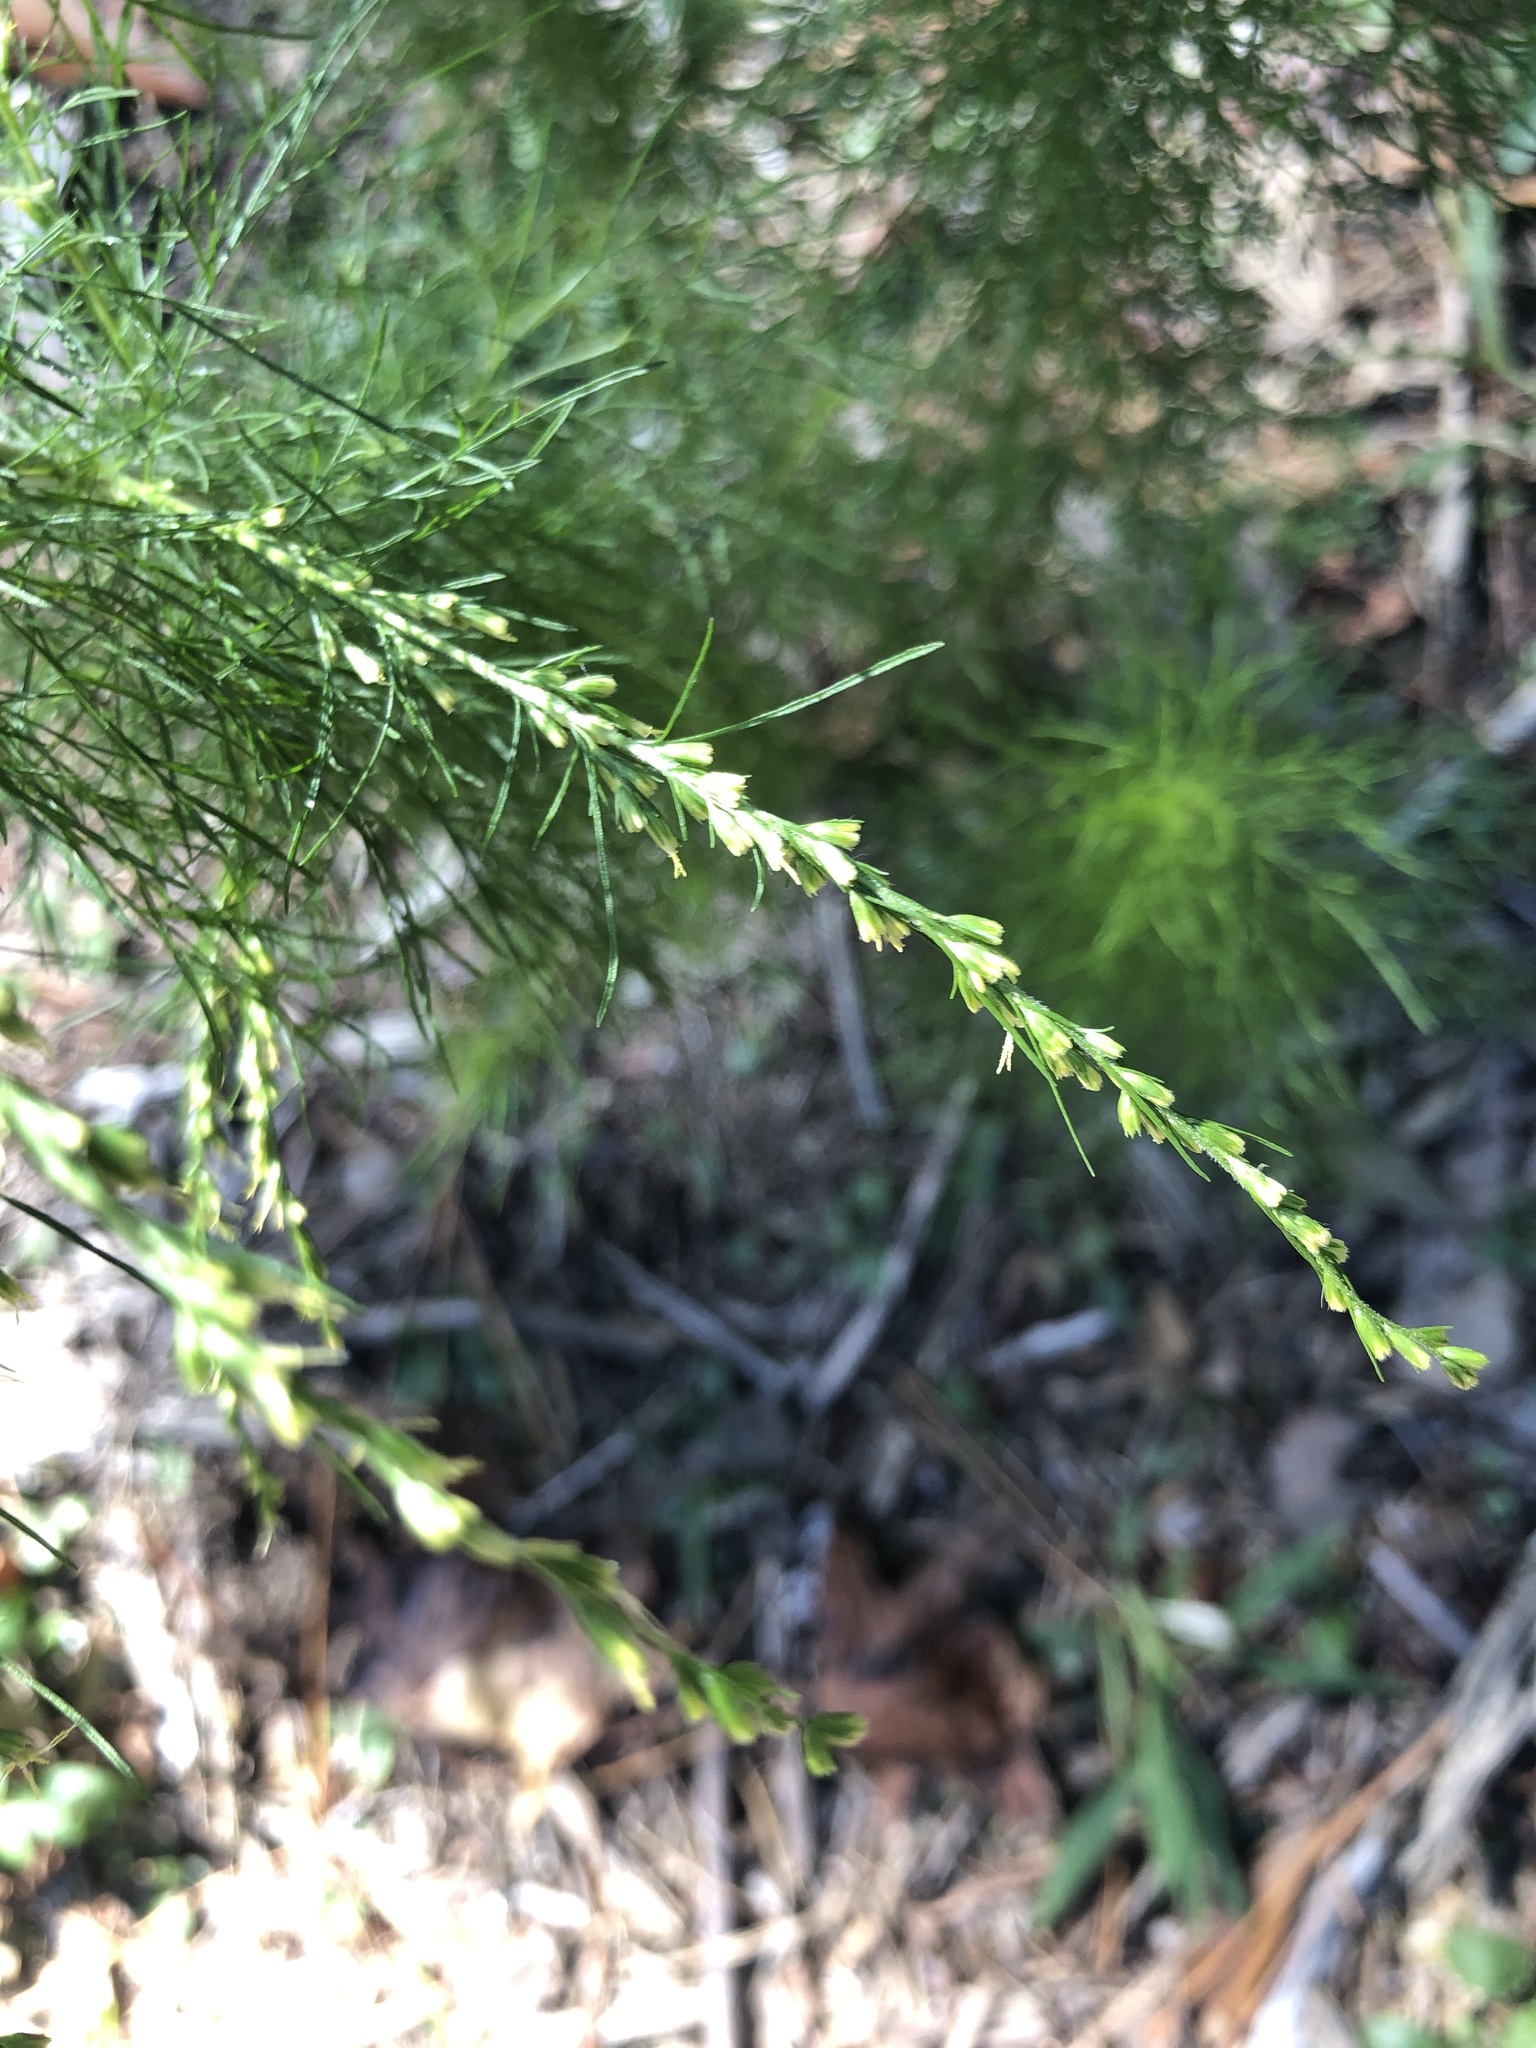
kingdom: Plantae
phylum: Tracheophyta
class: Magnoliopsida
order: Asterales
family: Asteraceae
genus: Eupatorium
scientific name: Eupatorium capillifolium
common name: Dog-fennel
